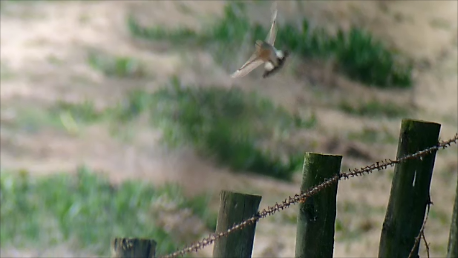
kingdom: Animalia
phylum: Chordata
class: Aves
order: Passeriformes
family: Muscicapidae
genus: Oenanthe
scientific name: Oenanthe isabellina
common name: Isabelline wheatear
